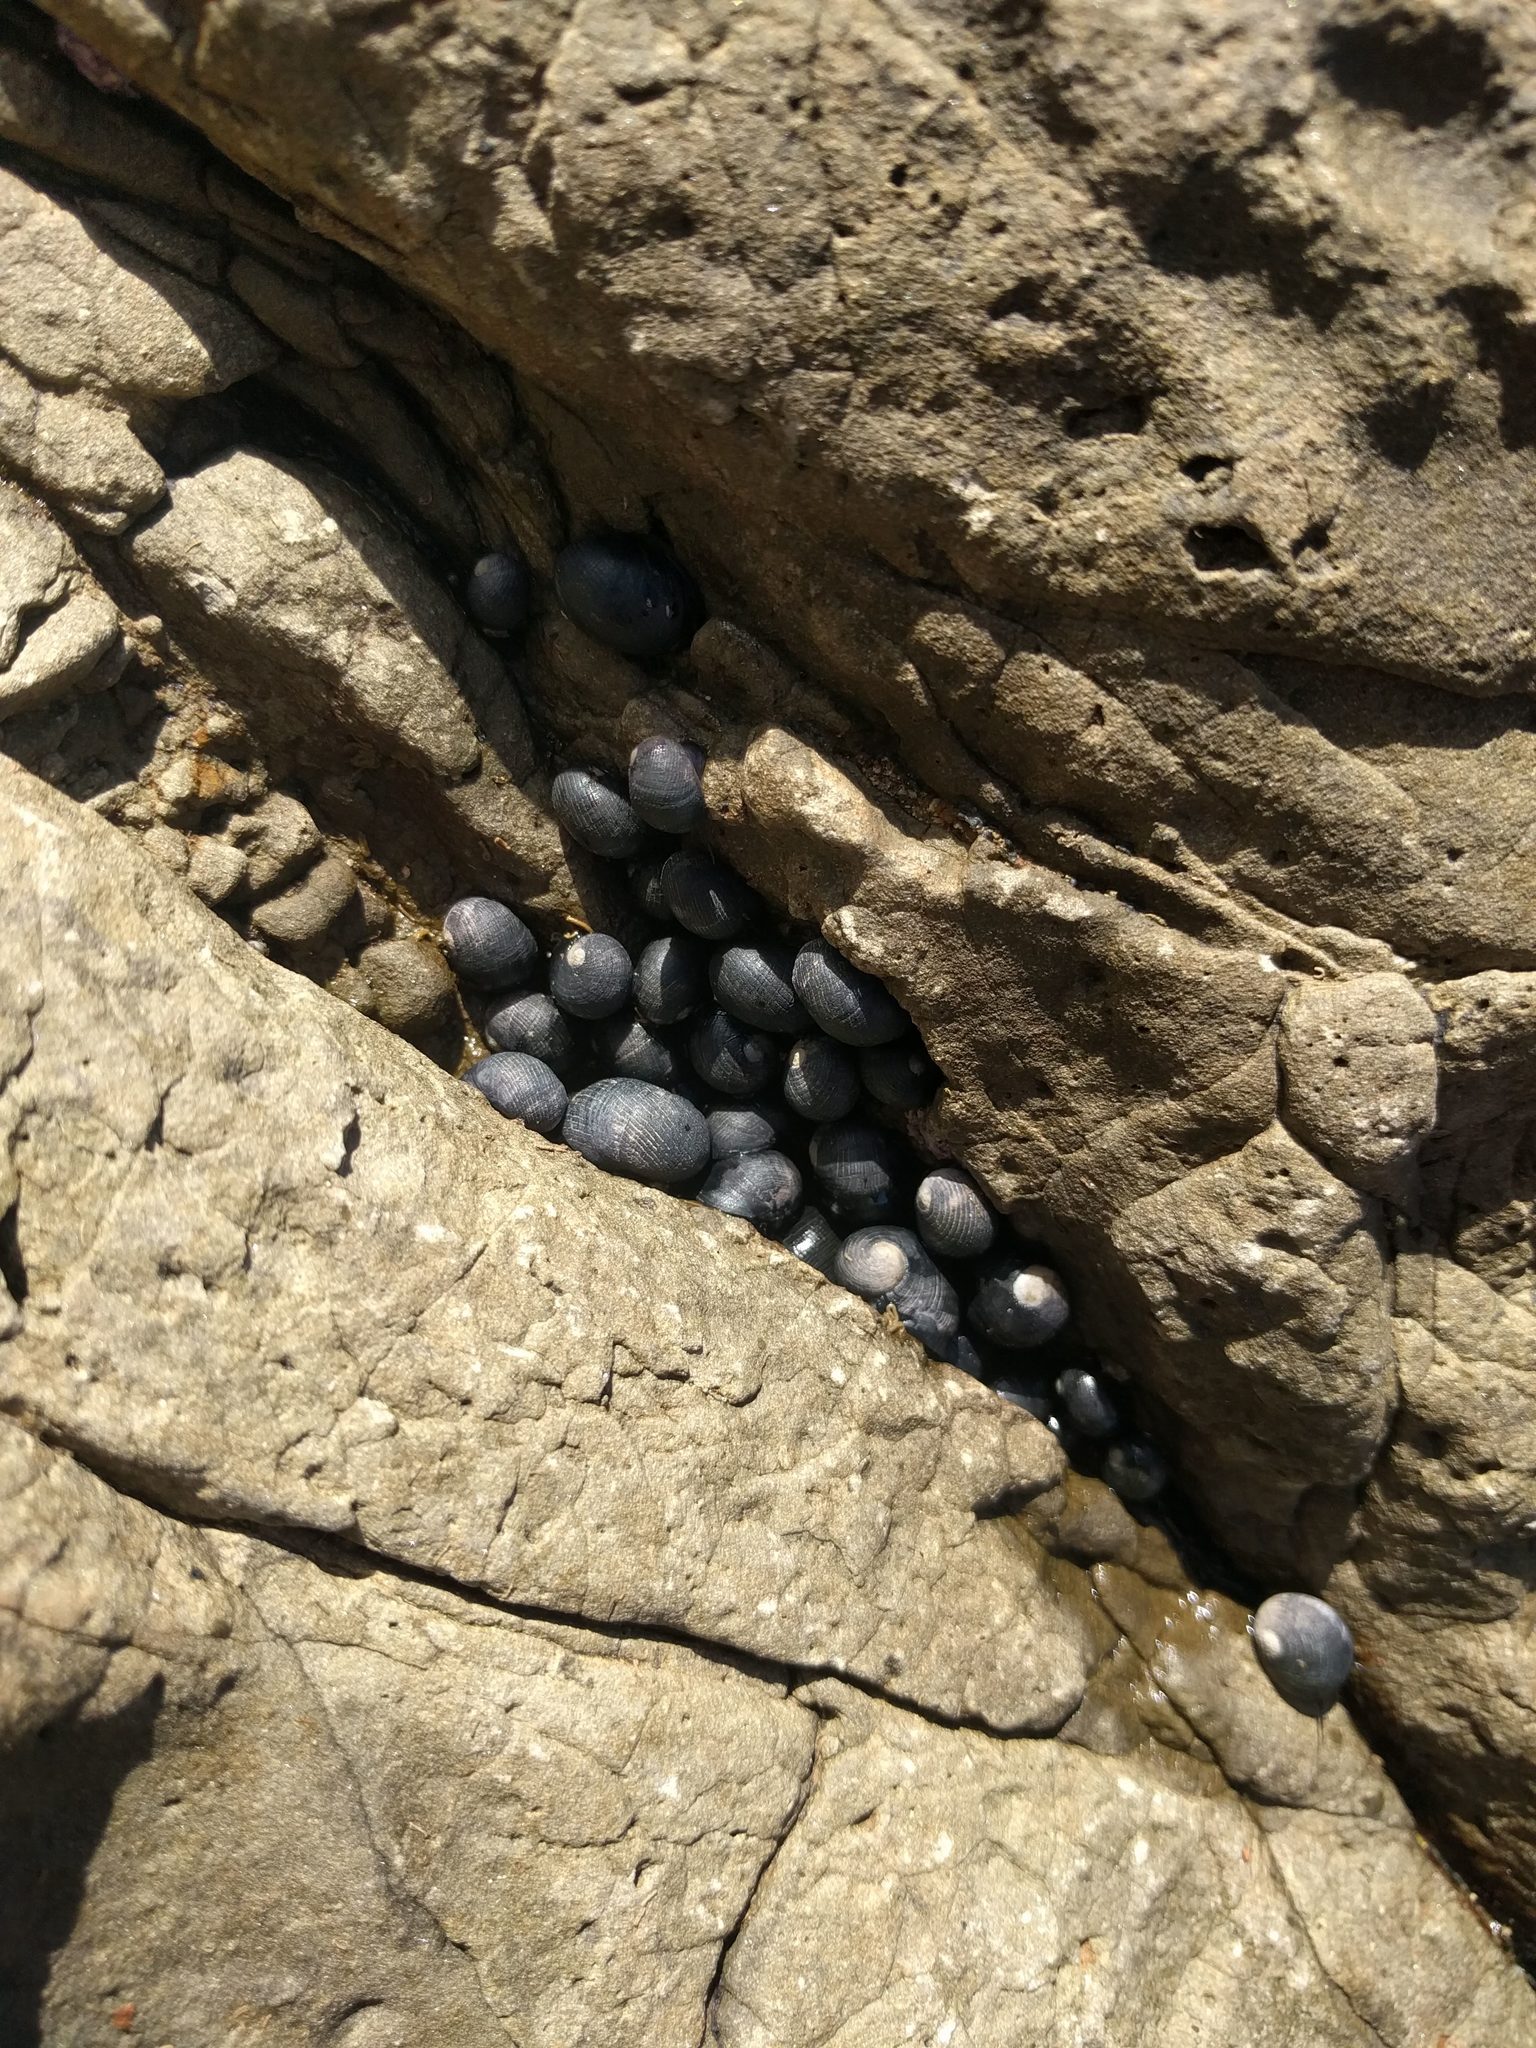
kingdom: Animalia
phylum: Mollusca
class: Gastropoda
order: Cycloneritida
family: Neritidae
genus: Nerita
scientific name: Nerita picea
